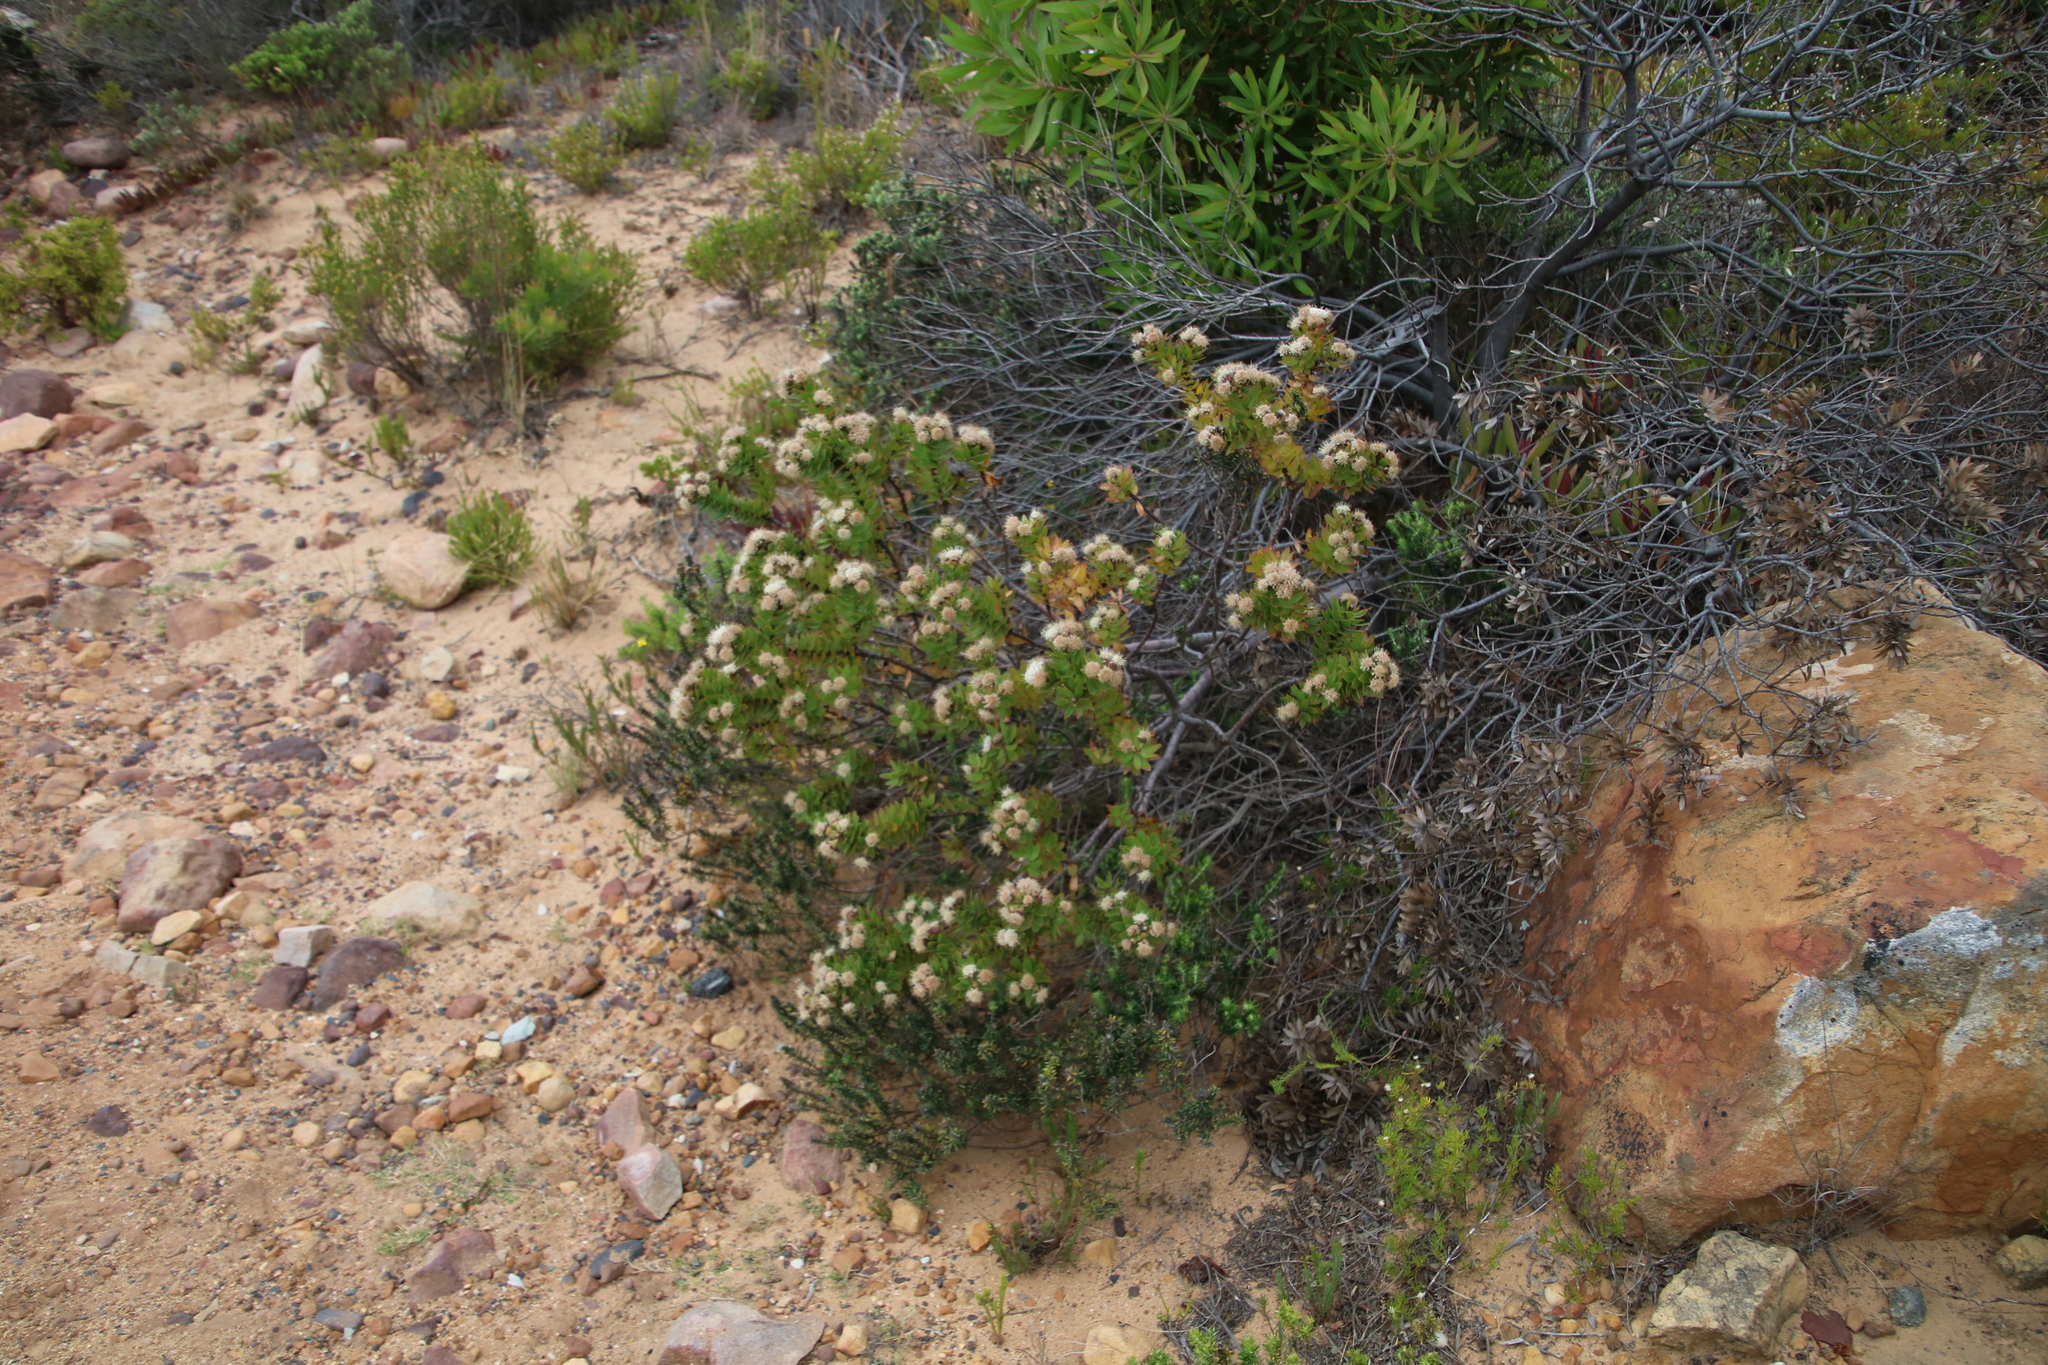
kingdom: Plantae
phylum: Tracheophyta
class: Magnoliopsida
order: Proteales
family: Proteaceae
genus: Leucospermum
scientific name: Leucospermum bolusii
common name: Gordon's bay pincushion
